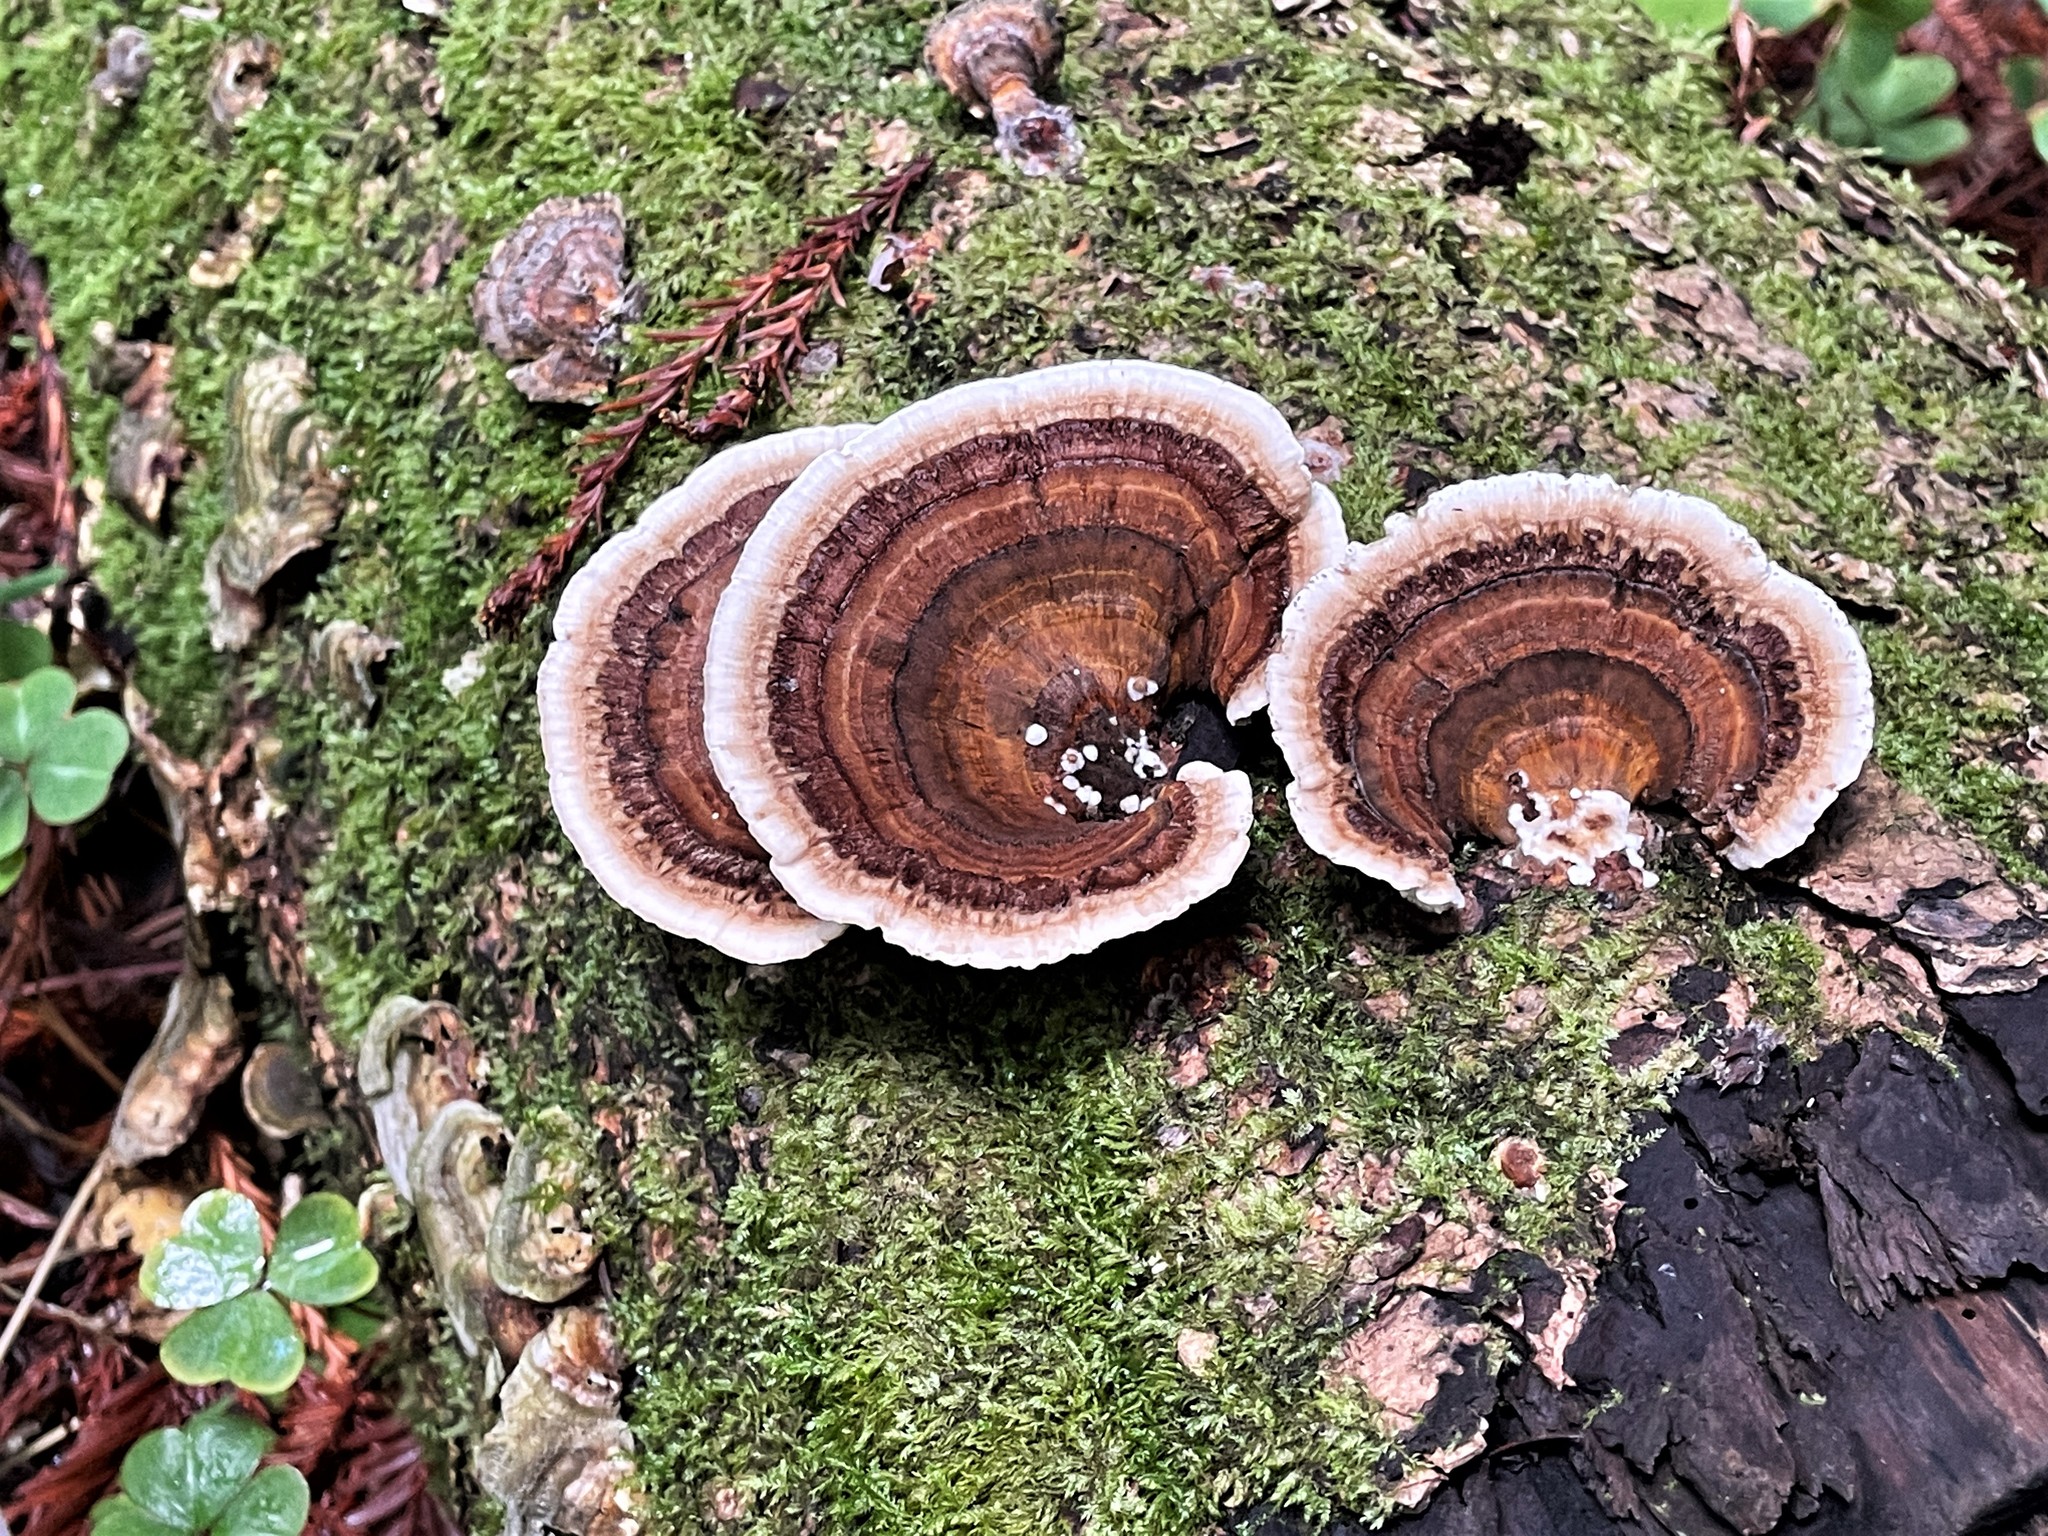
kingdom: Fungi
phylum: Basidiomycota
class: Agaricomycetes
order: Polyporales
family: Polyporaceae
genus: Trametes
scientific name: Trametes versicolor
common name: Turkeytail
